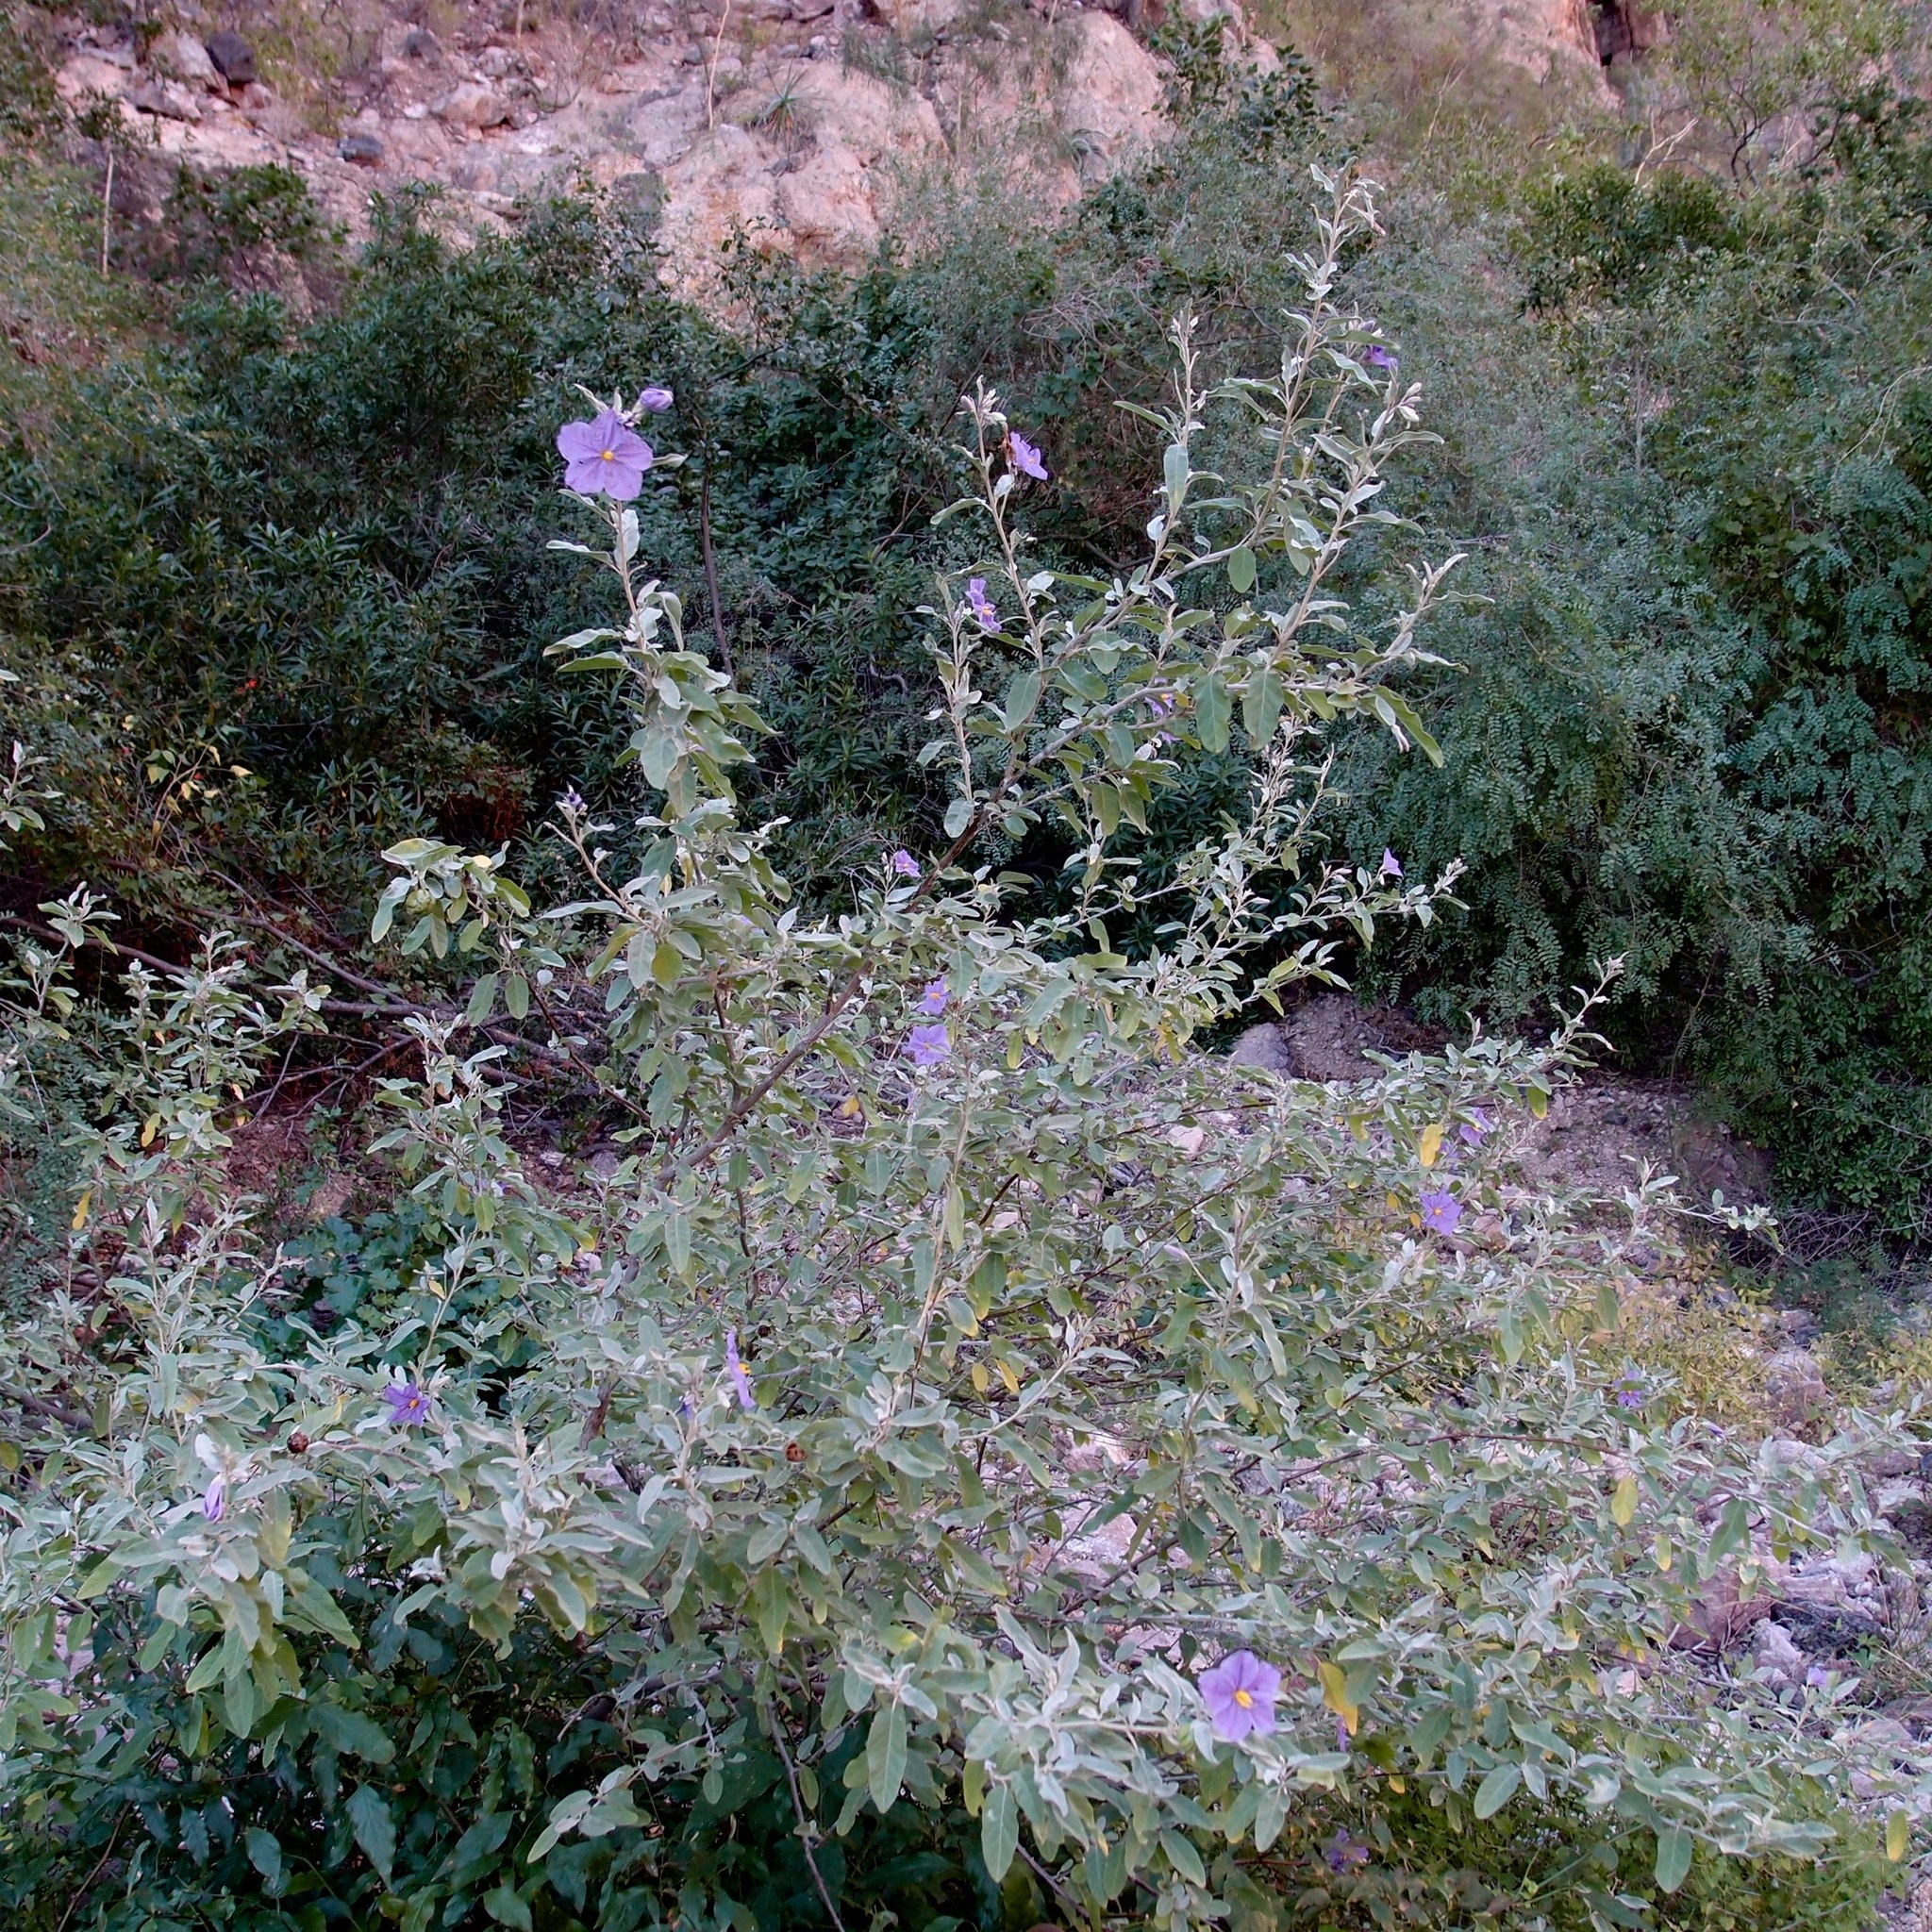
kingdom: Plantae
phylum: Tracheophyta
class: Magnoliopsida
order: Solanales
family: Solanaceae
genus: Solanum
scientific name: Solanum hindsianum
